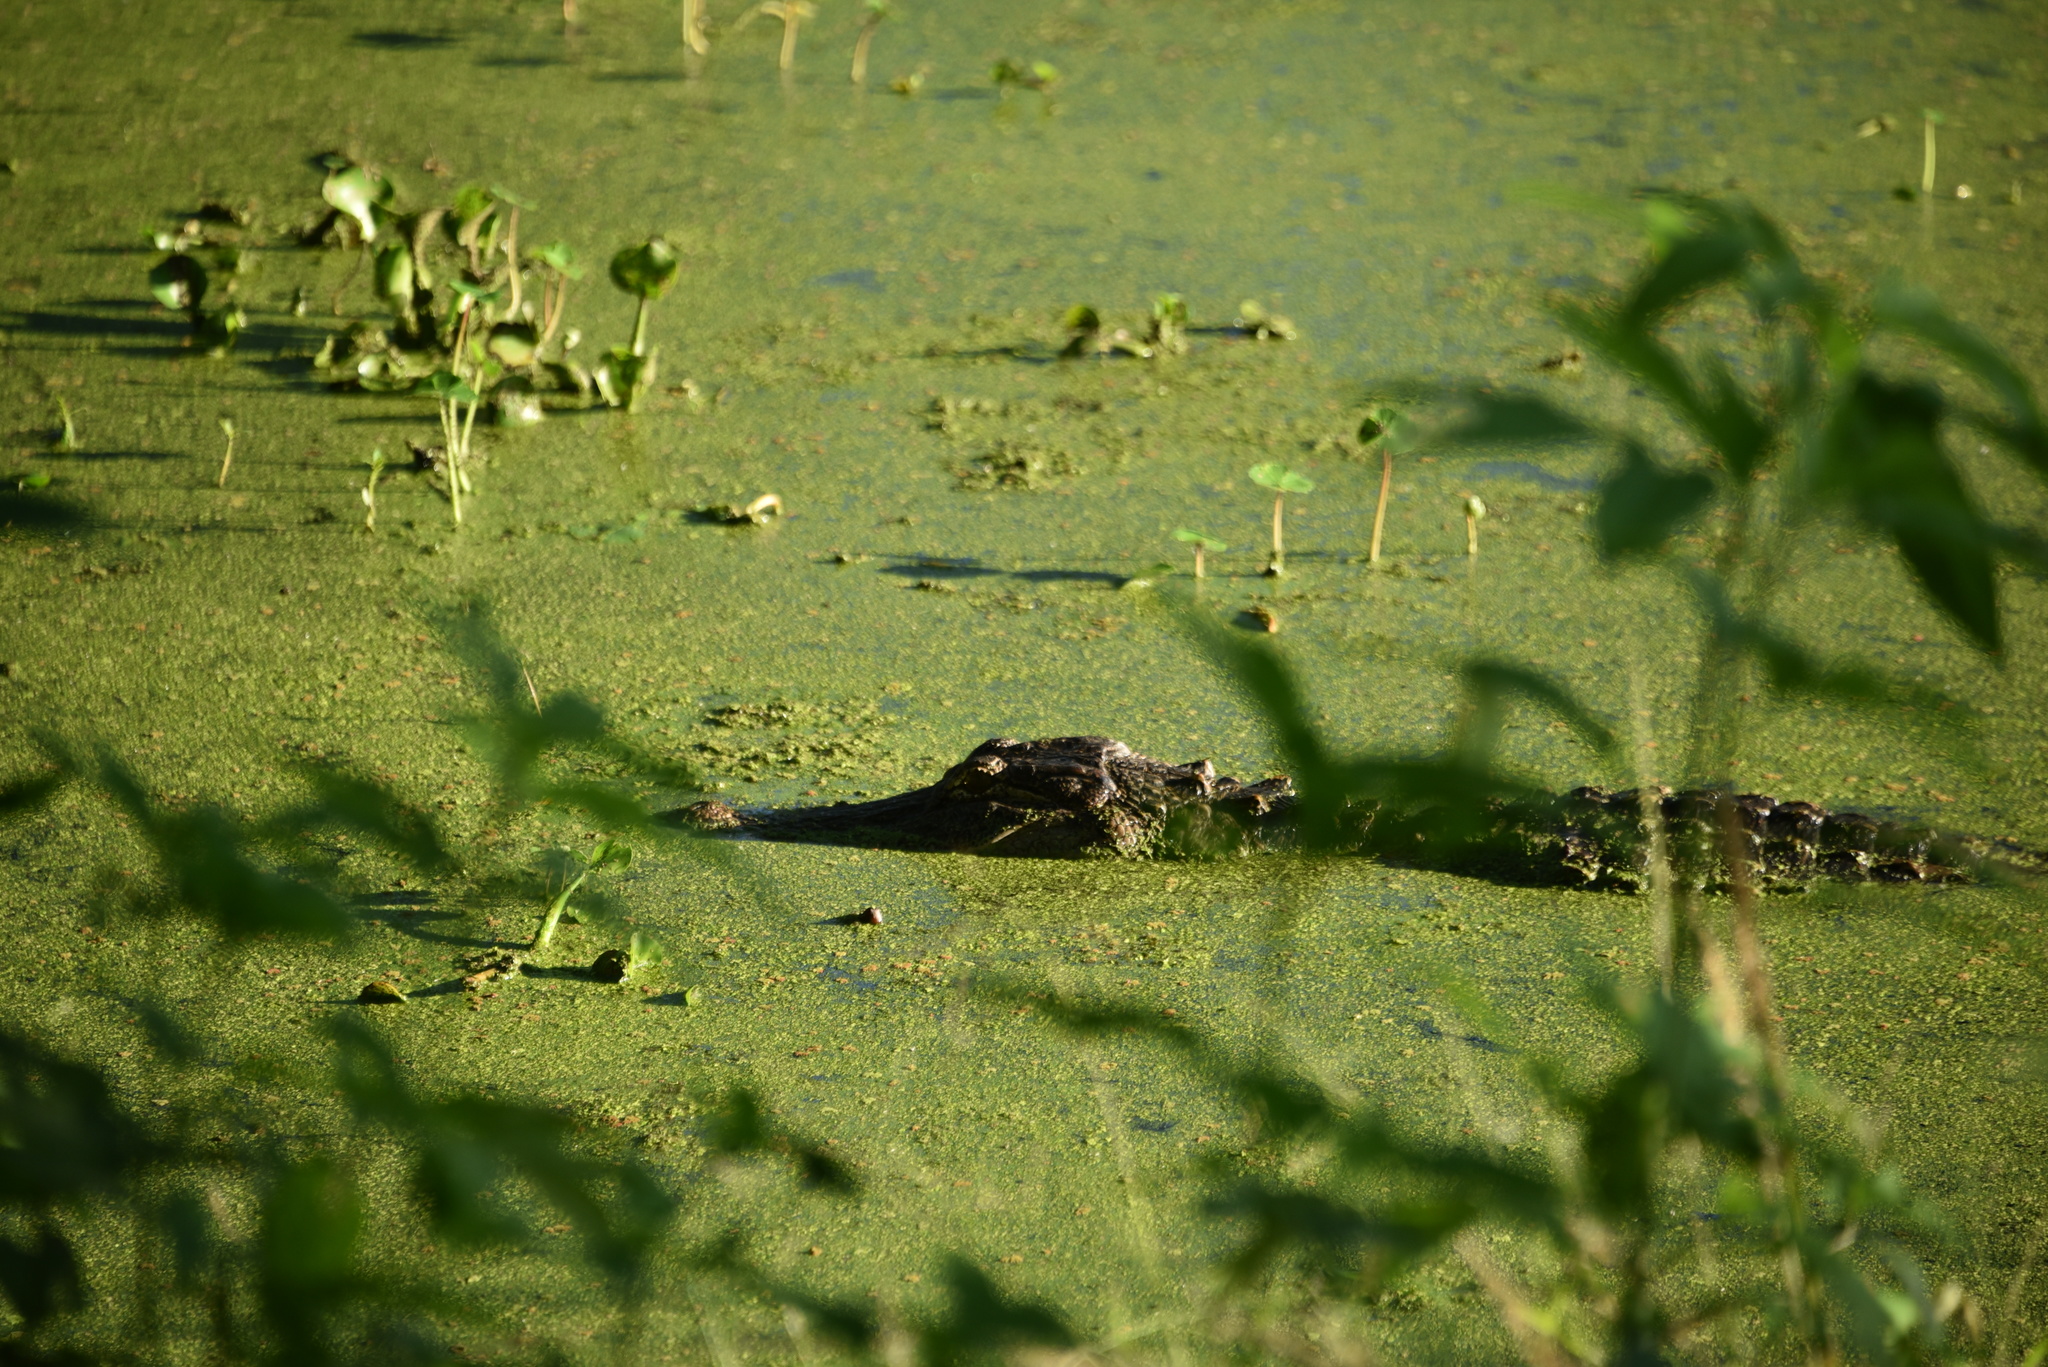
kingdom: Animalia
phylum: Chordata
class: Crocodylia
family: Alligatoridae
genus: Alligator
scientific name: Alligator mississippiensis
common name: American alligator
